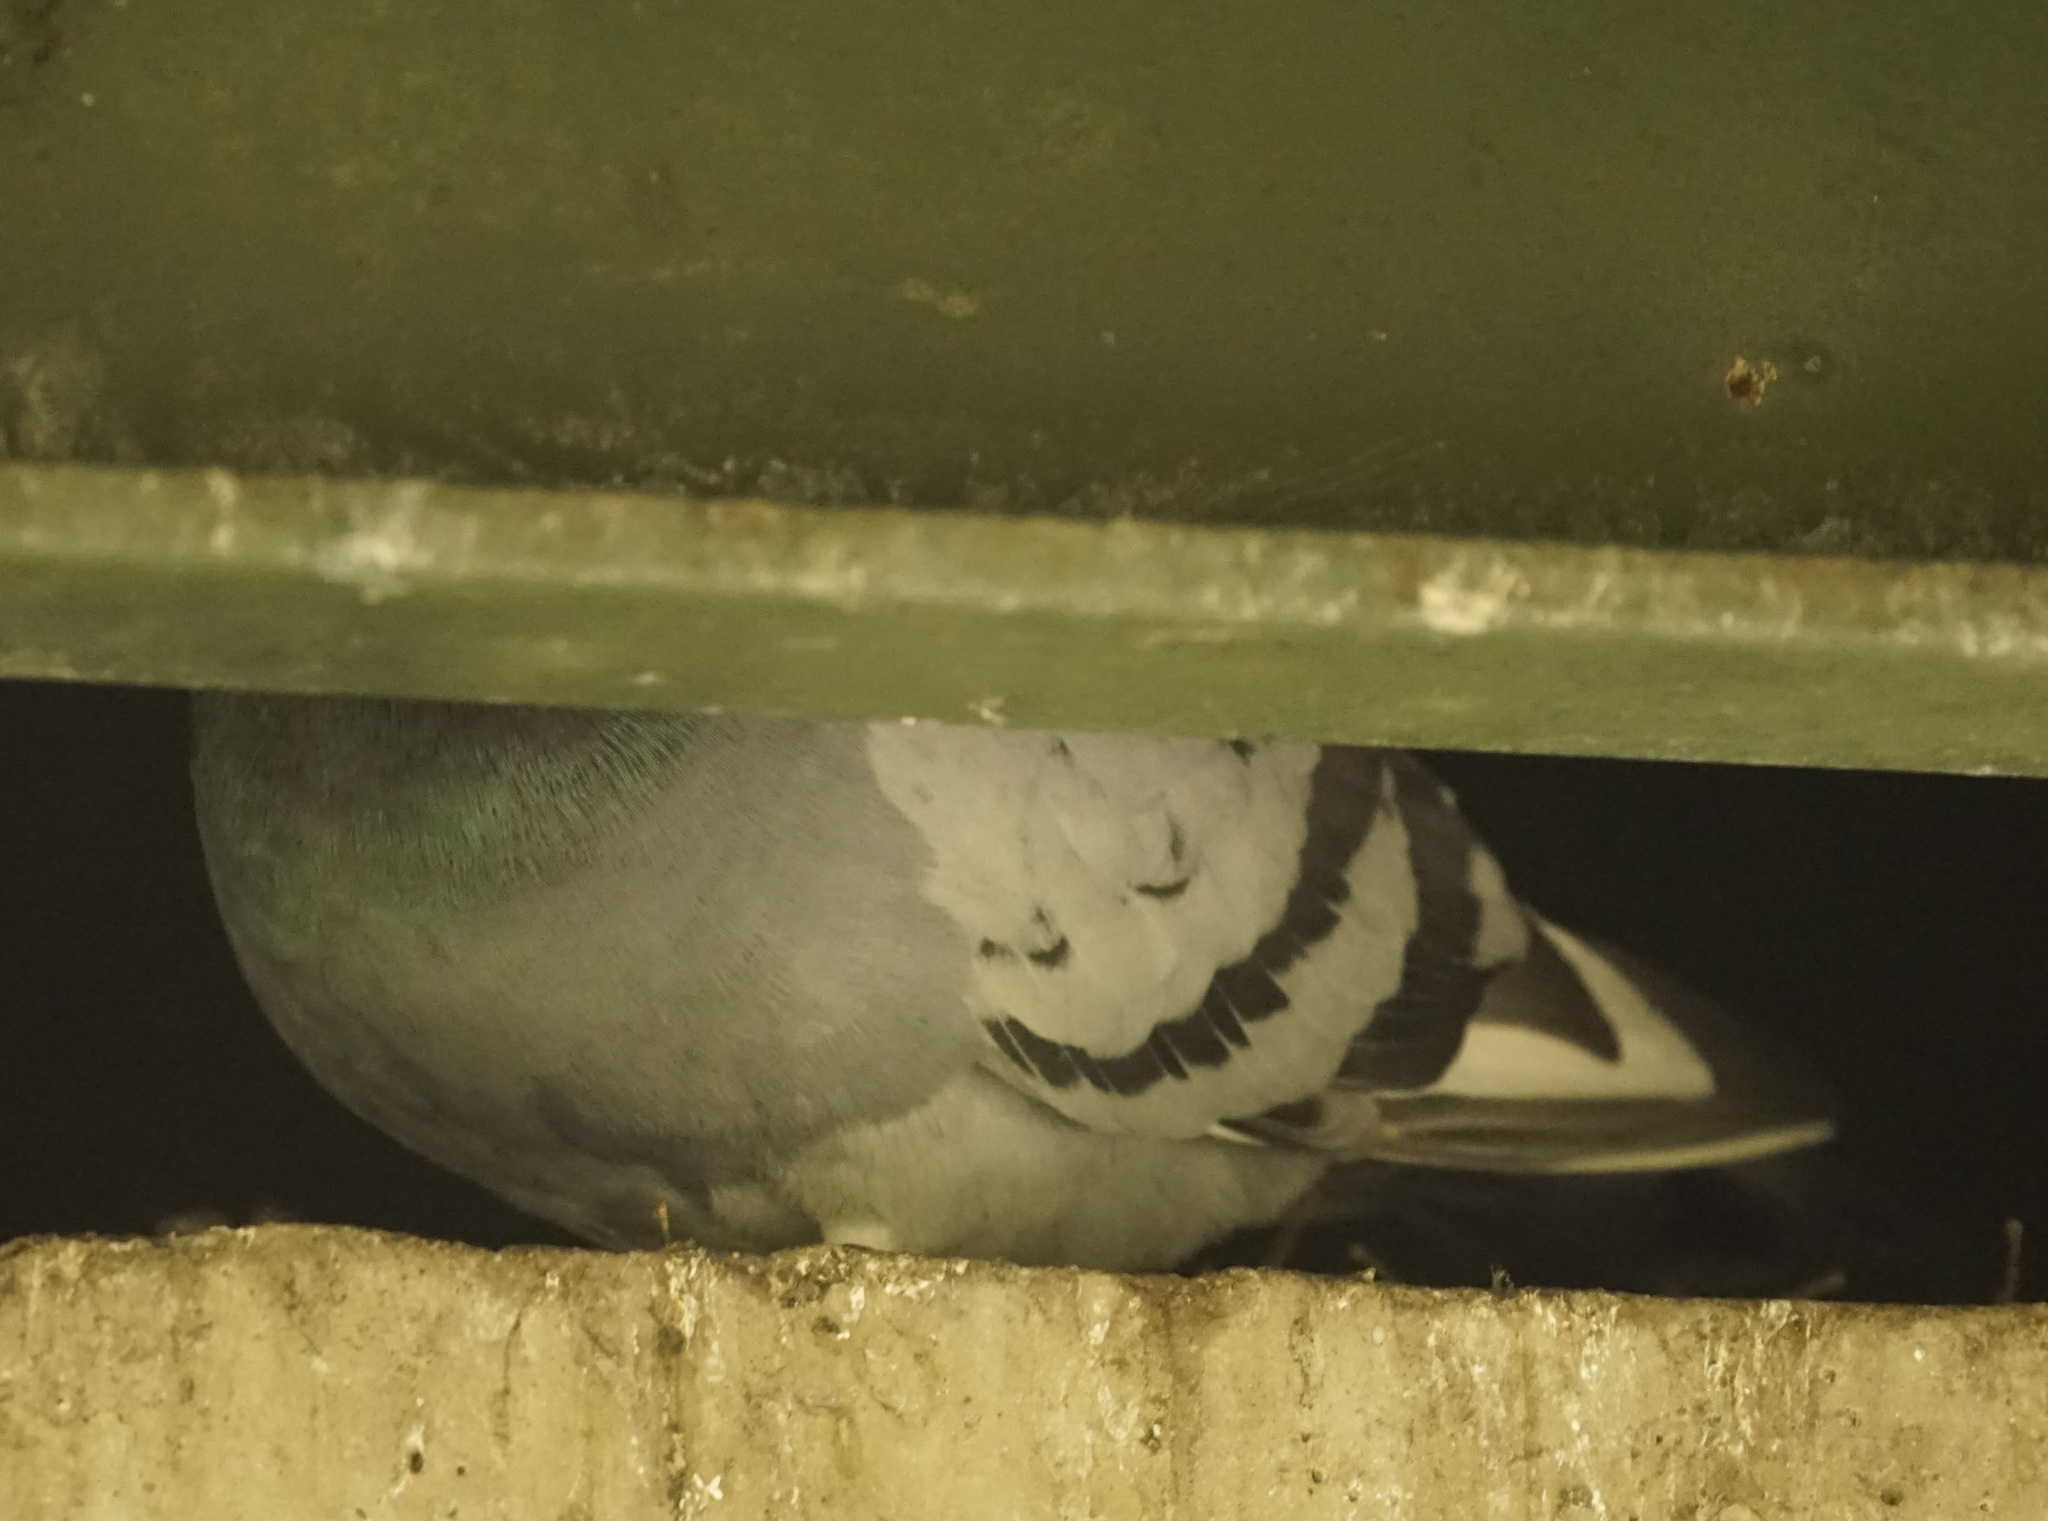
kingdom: Animalia
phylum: Chordata
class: Aves
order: Columbiformes
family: Columbidae
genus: Columba
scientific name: Columba livia
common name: Rock pigeon
